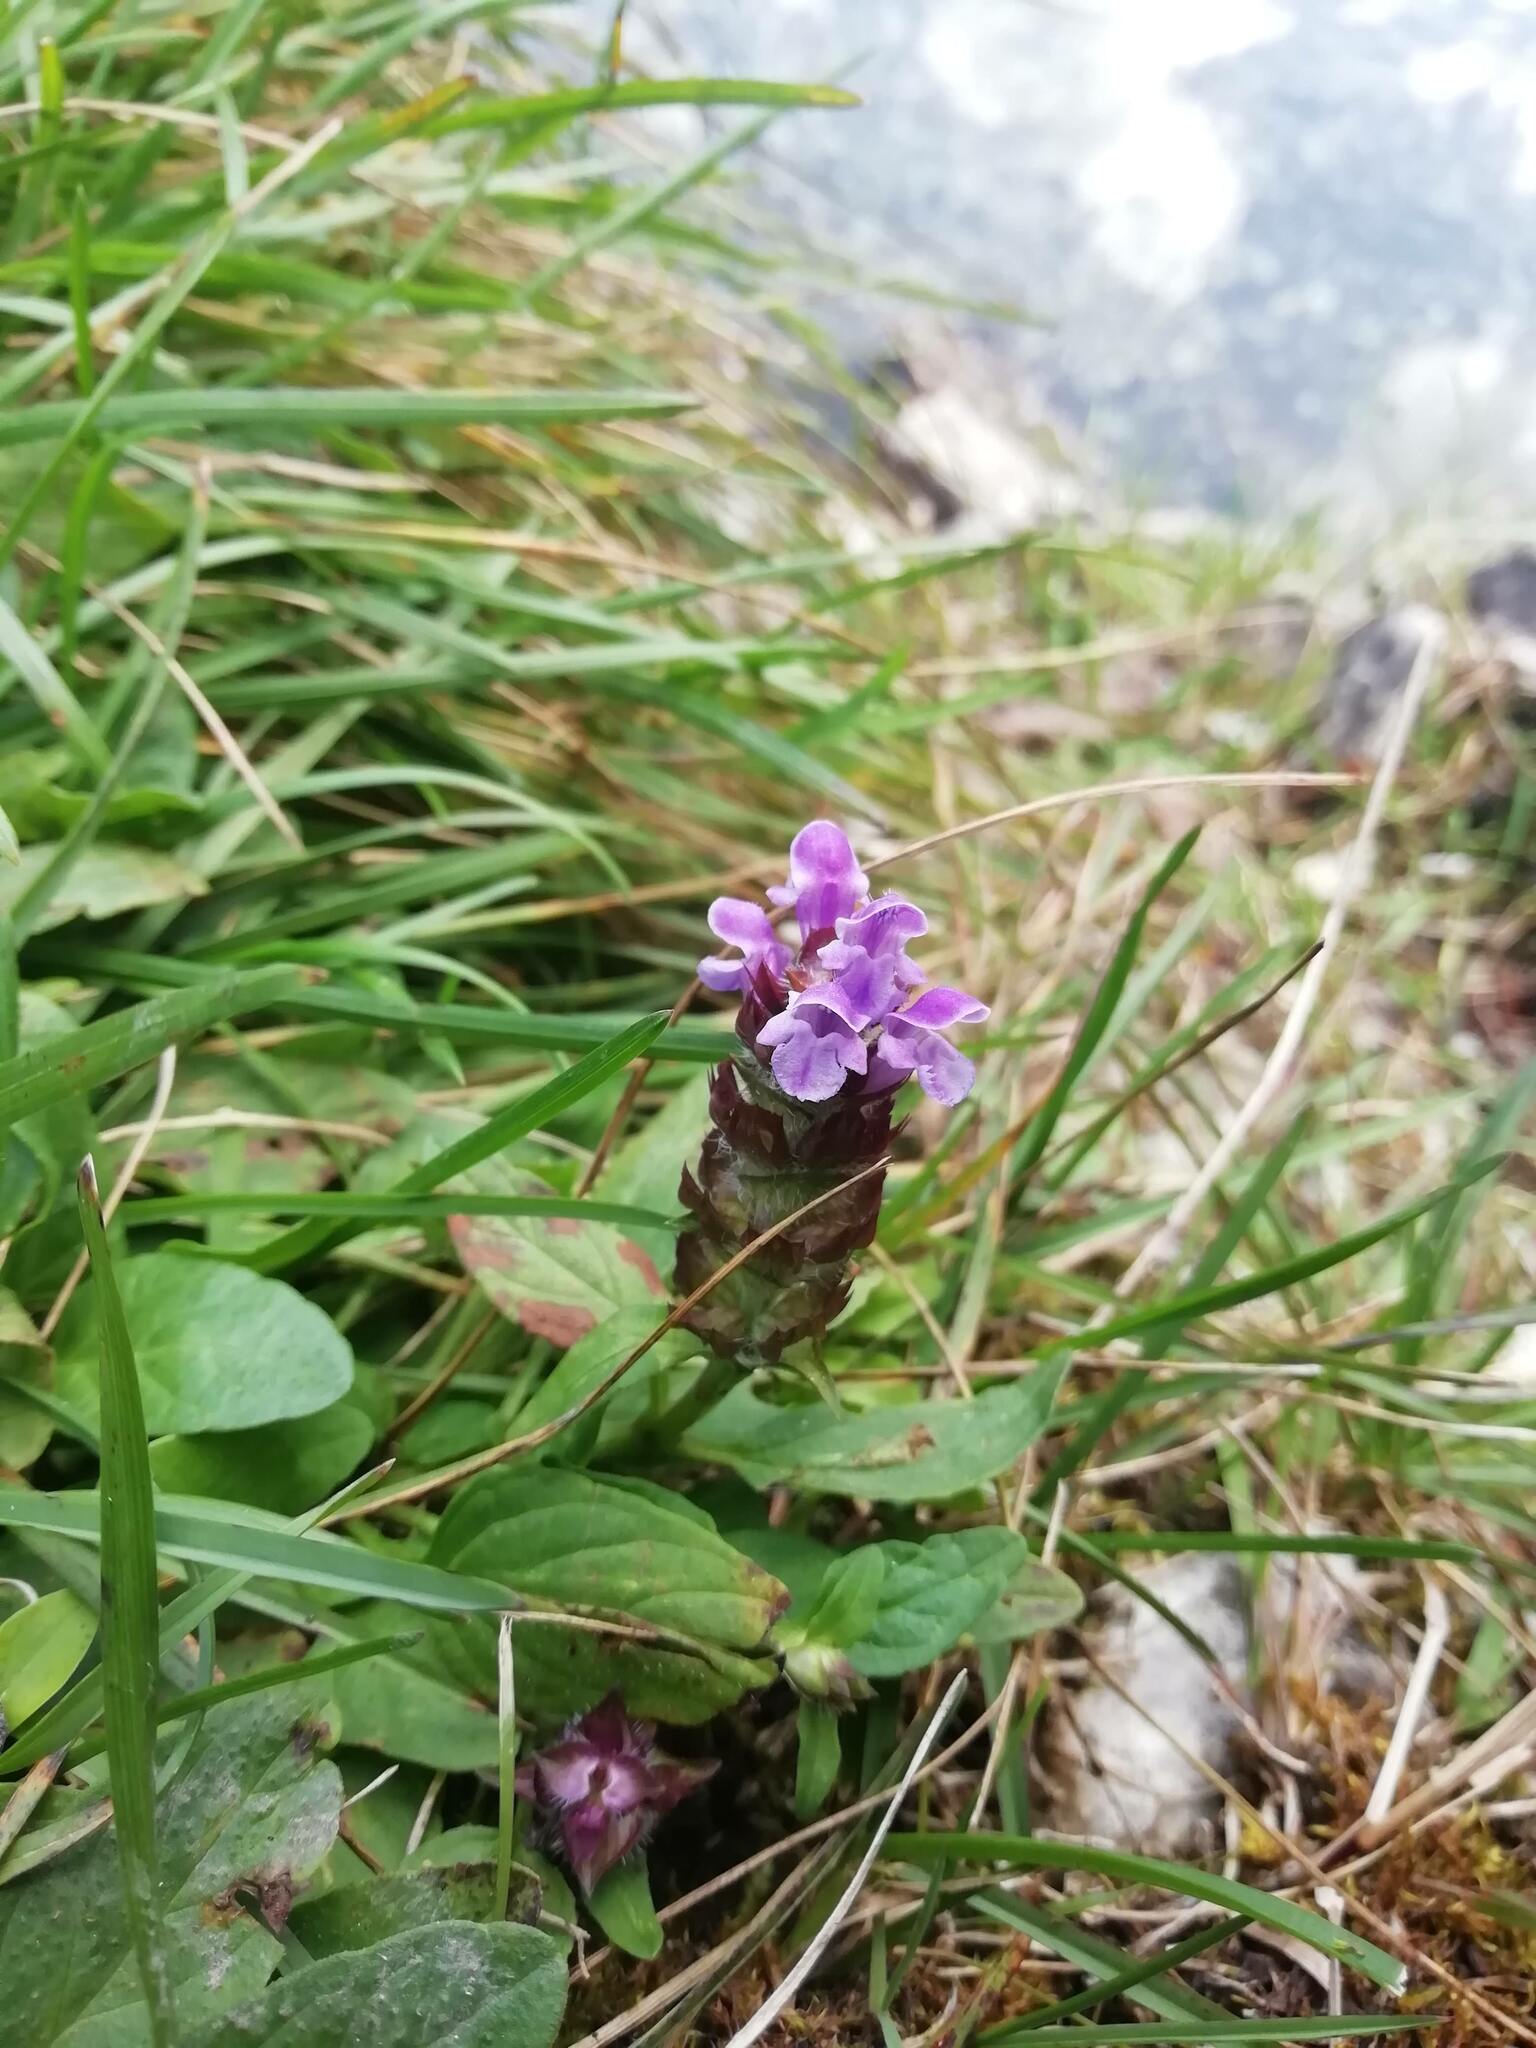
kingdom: Plantae
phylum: Tracheophyta
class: Magnoliopsida
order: Lamiales
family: Lamiaceae
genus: Prunella
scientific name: Prunella vulgaris
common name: Heal-all
